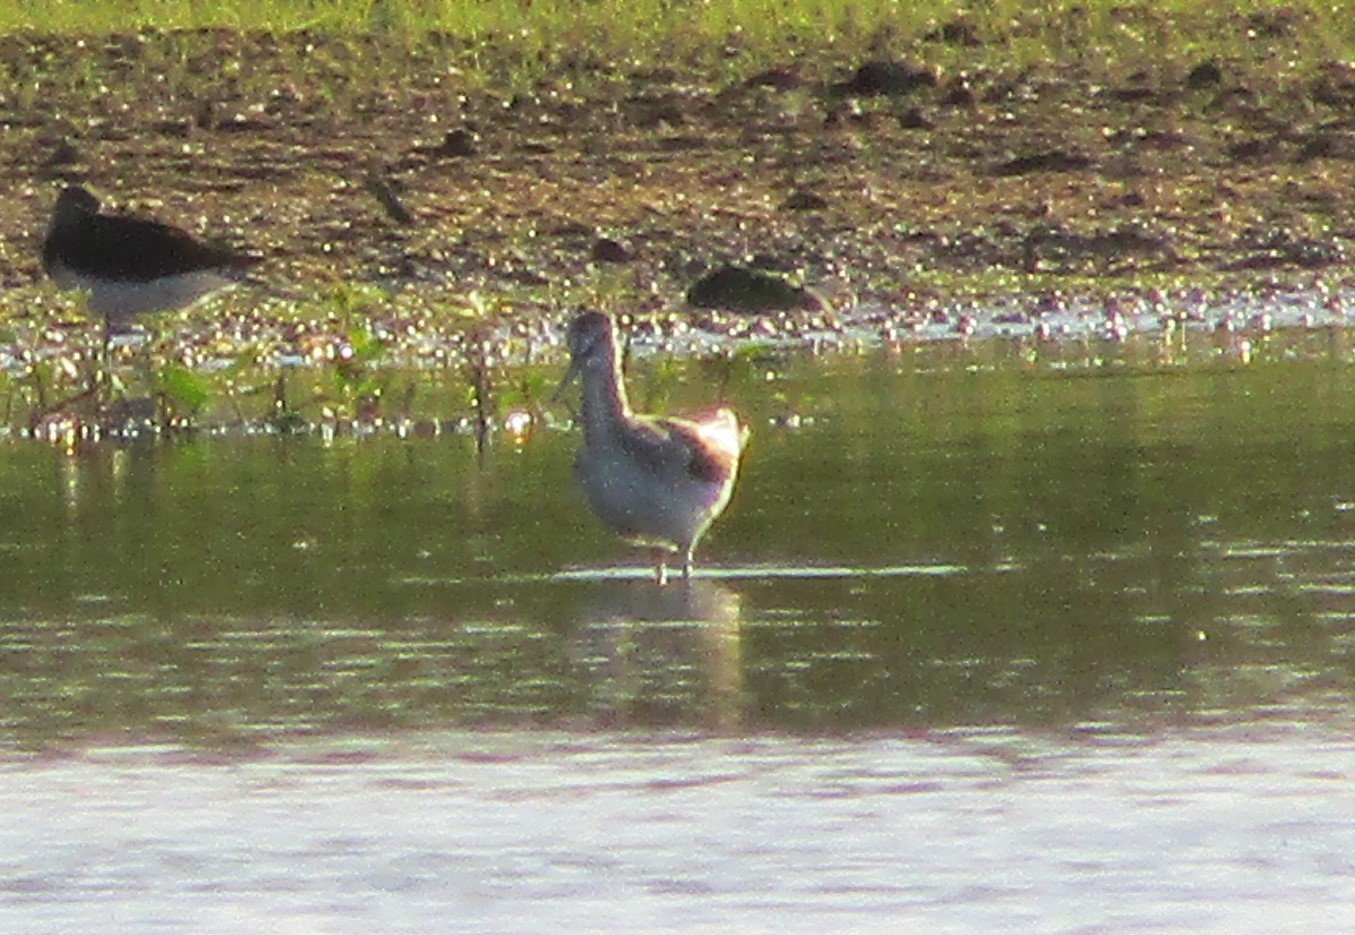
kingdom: Animalia
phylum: Chordata
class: Aves
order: Charadriiformes
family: Scolopacidae
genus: Tringa
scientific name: Tringa nebularia
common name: Common greenshank
